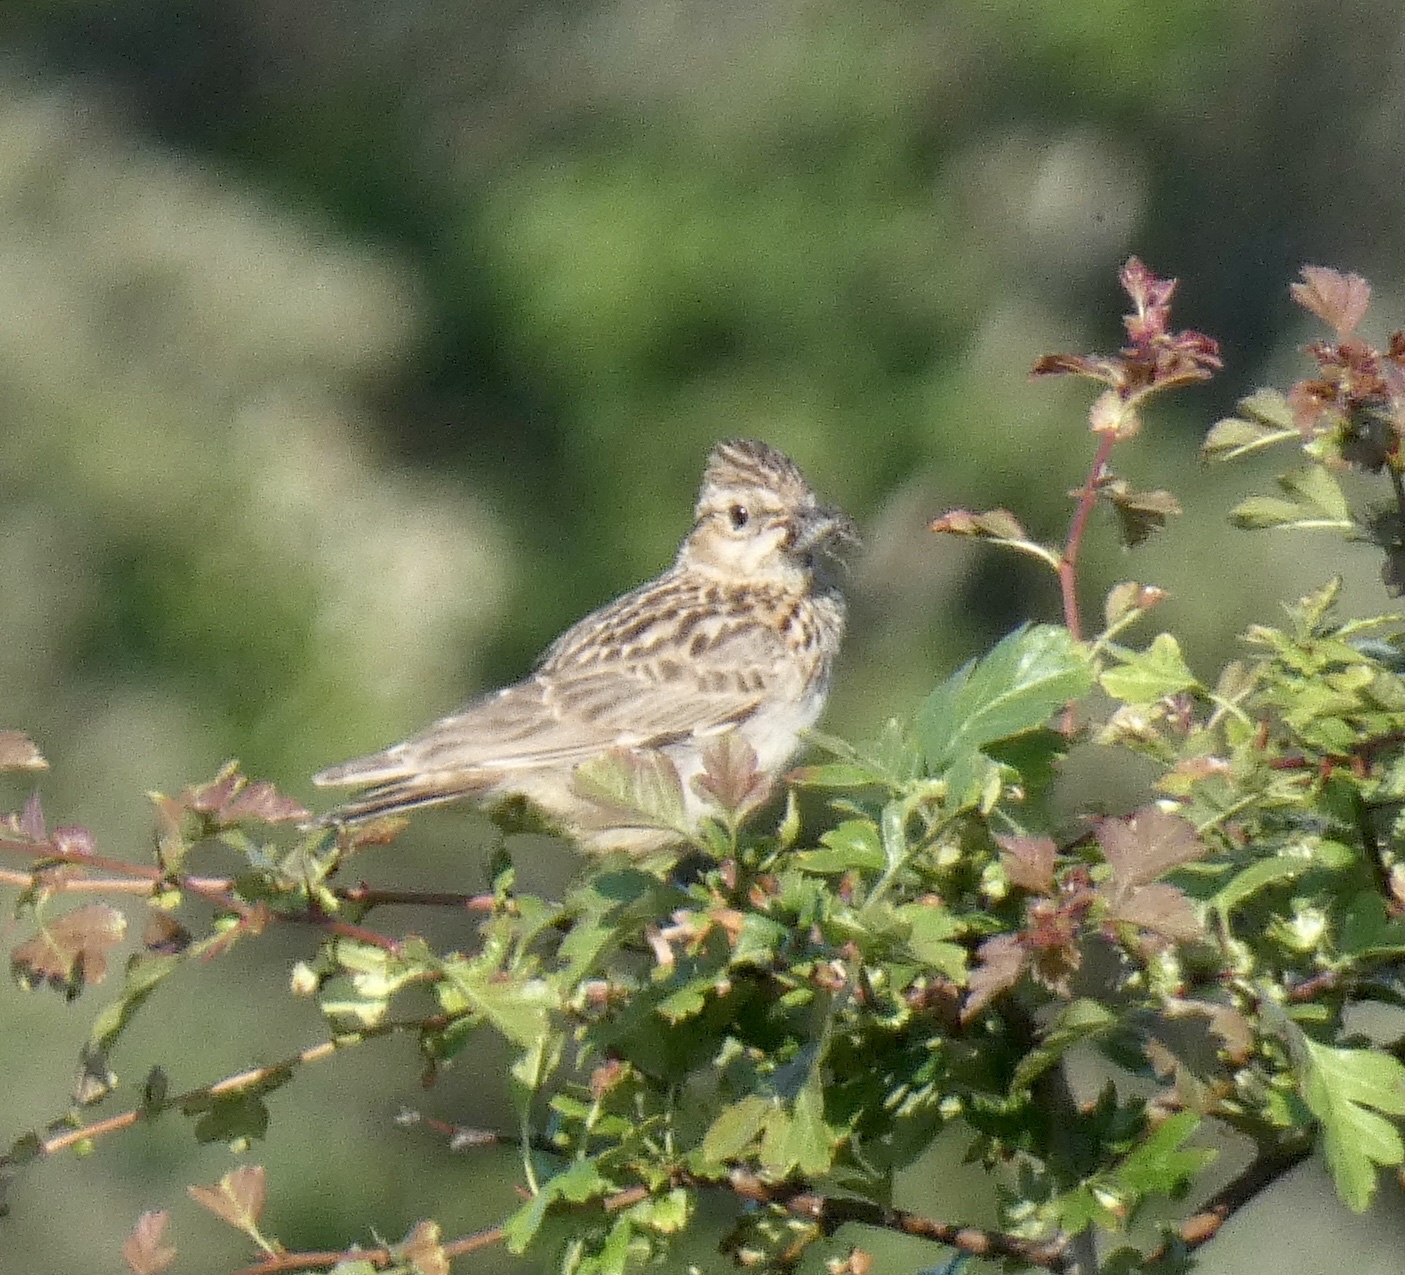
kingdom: Animalia
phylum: Chordata
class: Aves
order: Passeriformes
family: Alaudidae
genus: Lullula
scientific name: Lullula arborea
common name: Woodlark
